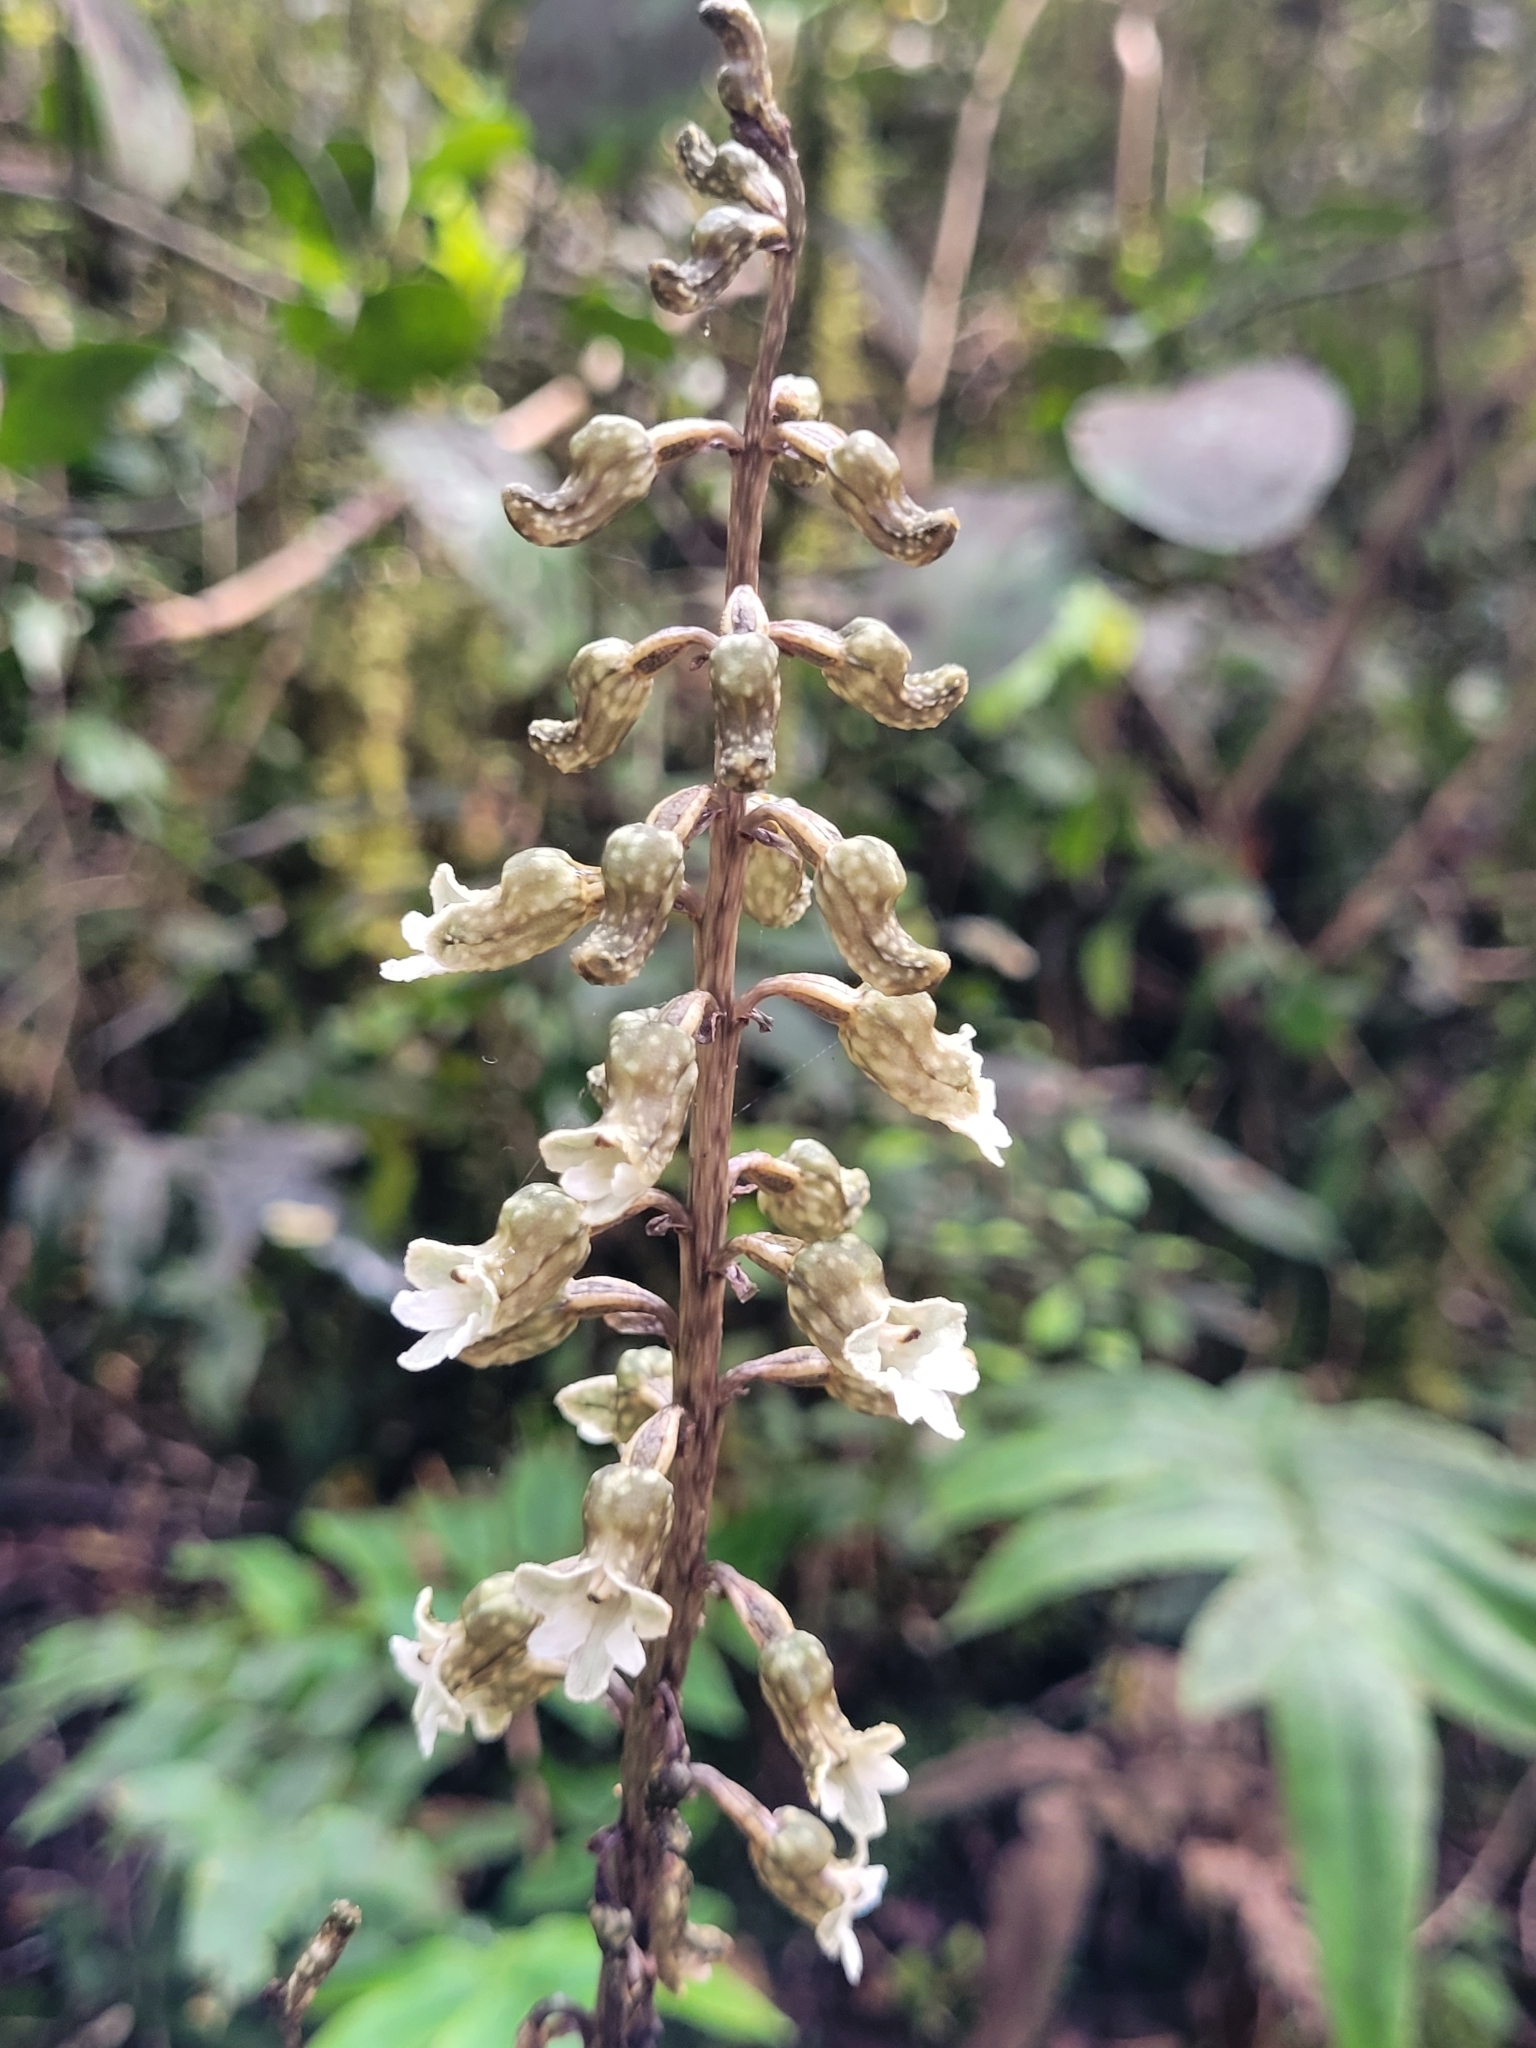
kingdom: Plantae
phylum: Tracheophyta
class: Liliopsida
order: Asparagales
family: Orchidaceae
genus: Gastrodia
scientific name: Gastrodia cunninghamii
